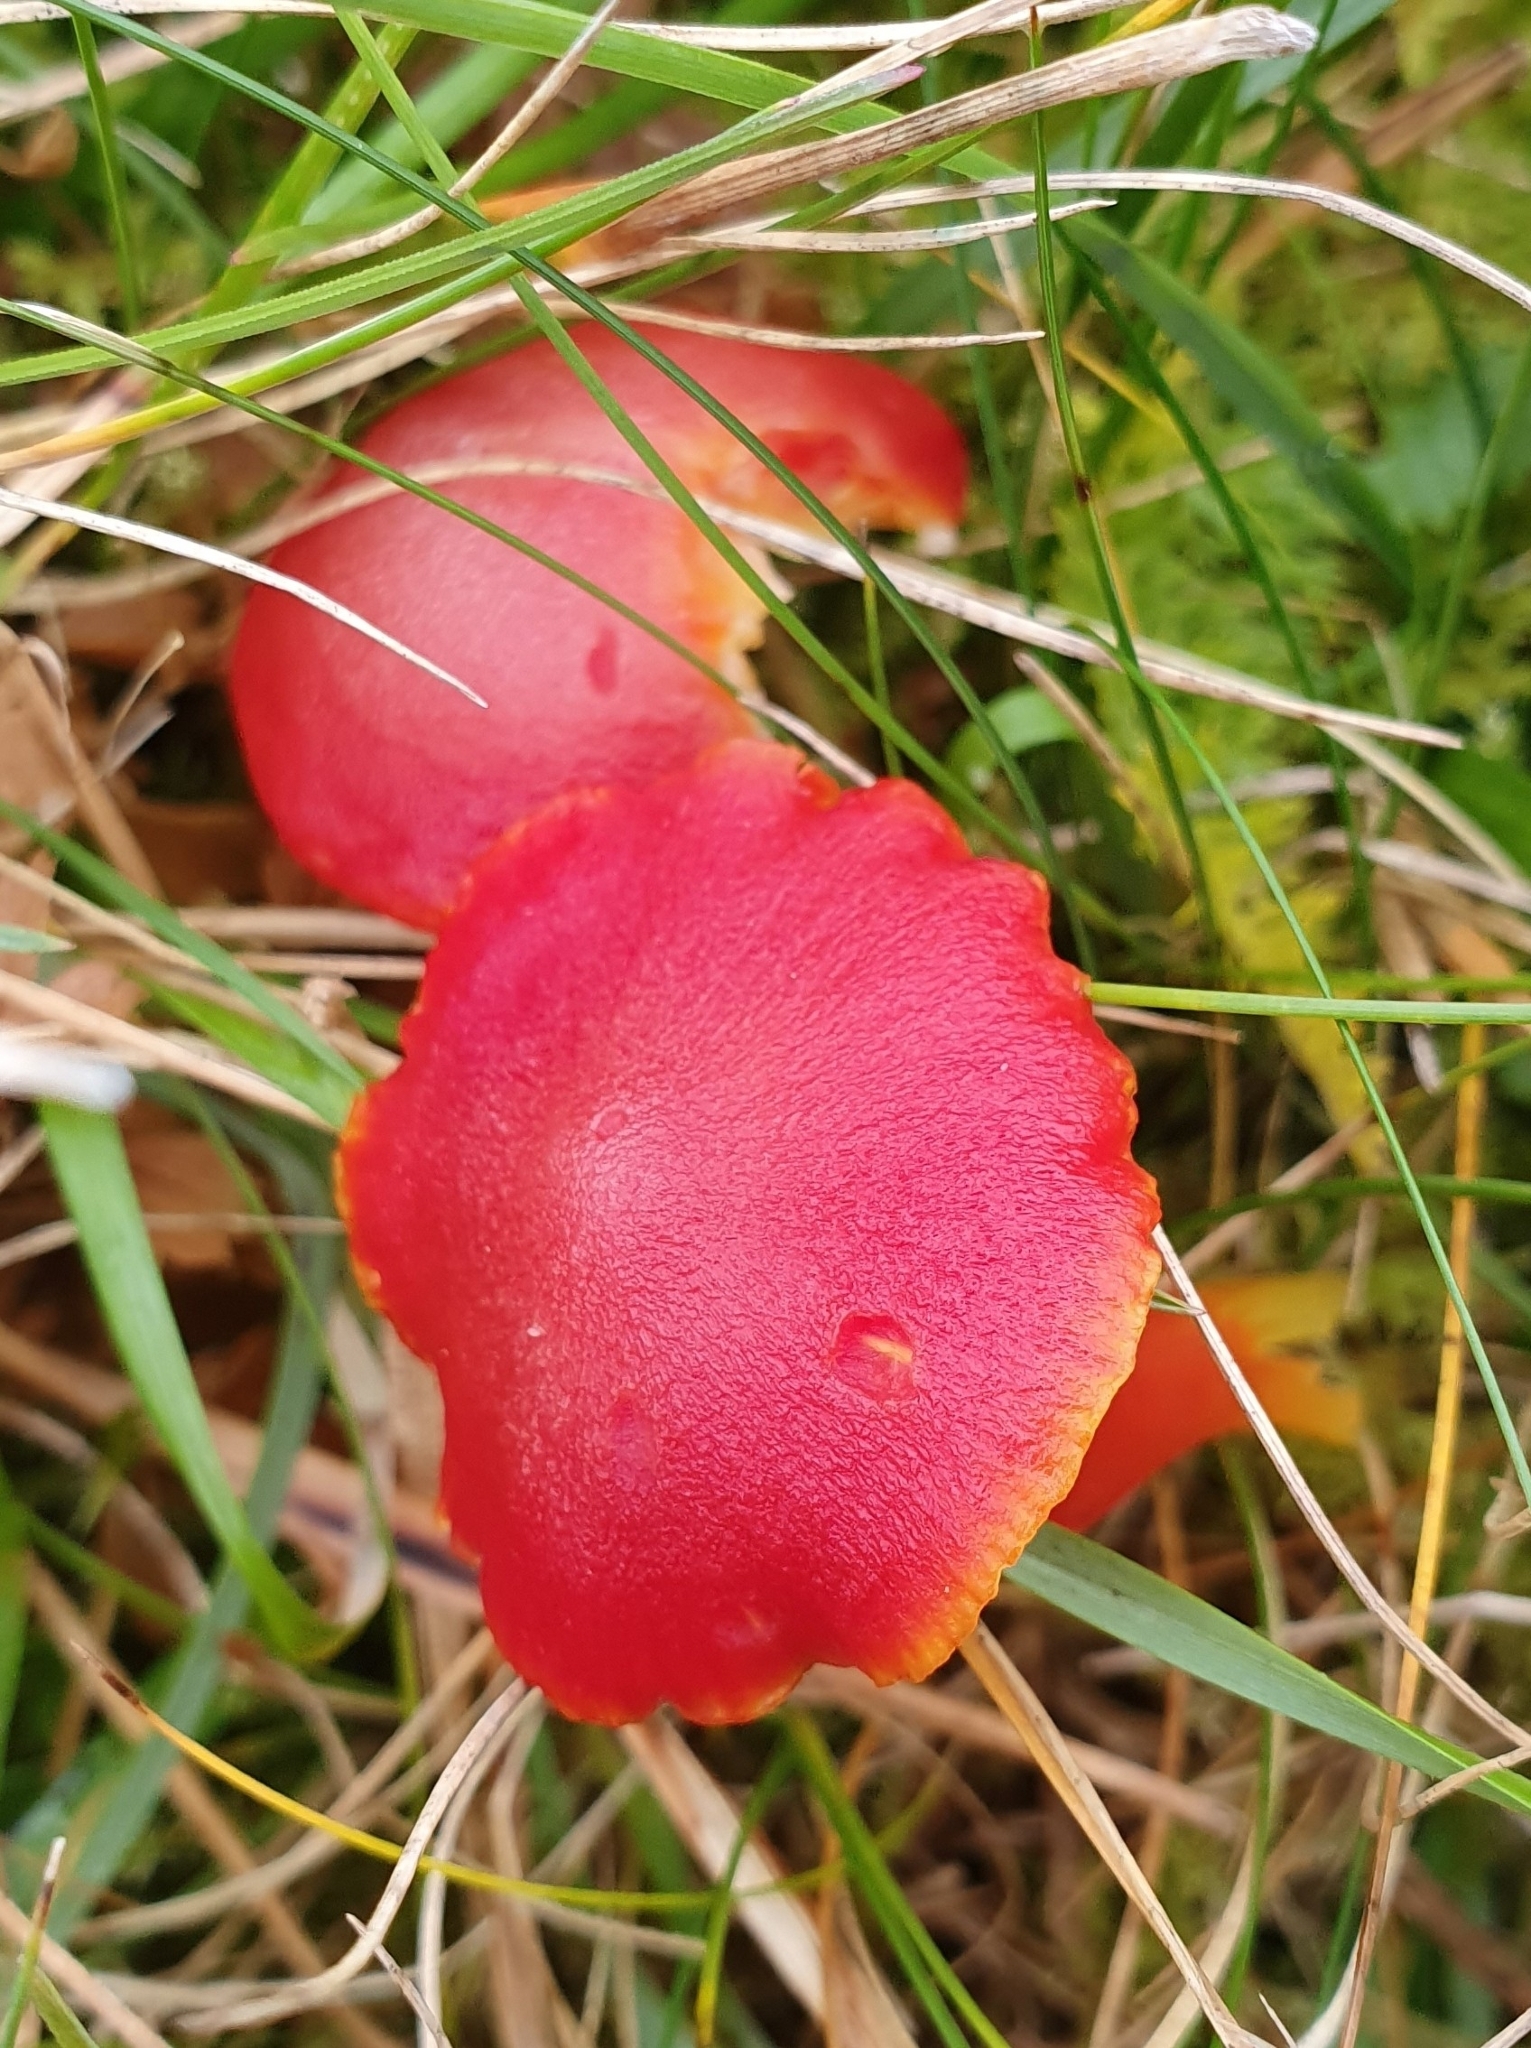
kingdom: Fungi
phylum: Basidiomycota
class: Agaricomycetes
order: Agaricales
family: Hygrophoraceae
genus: Hygrocybe
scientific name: Hygrocybe coccinea
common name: Scarlet hood
